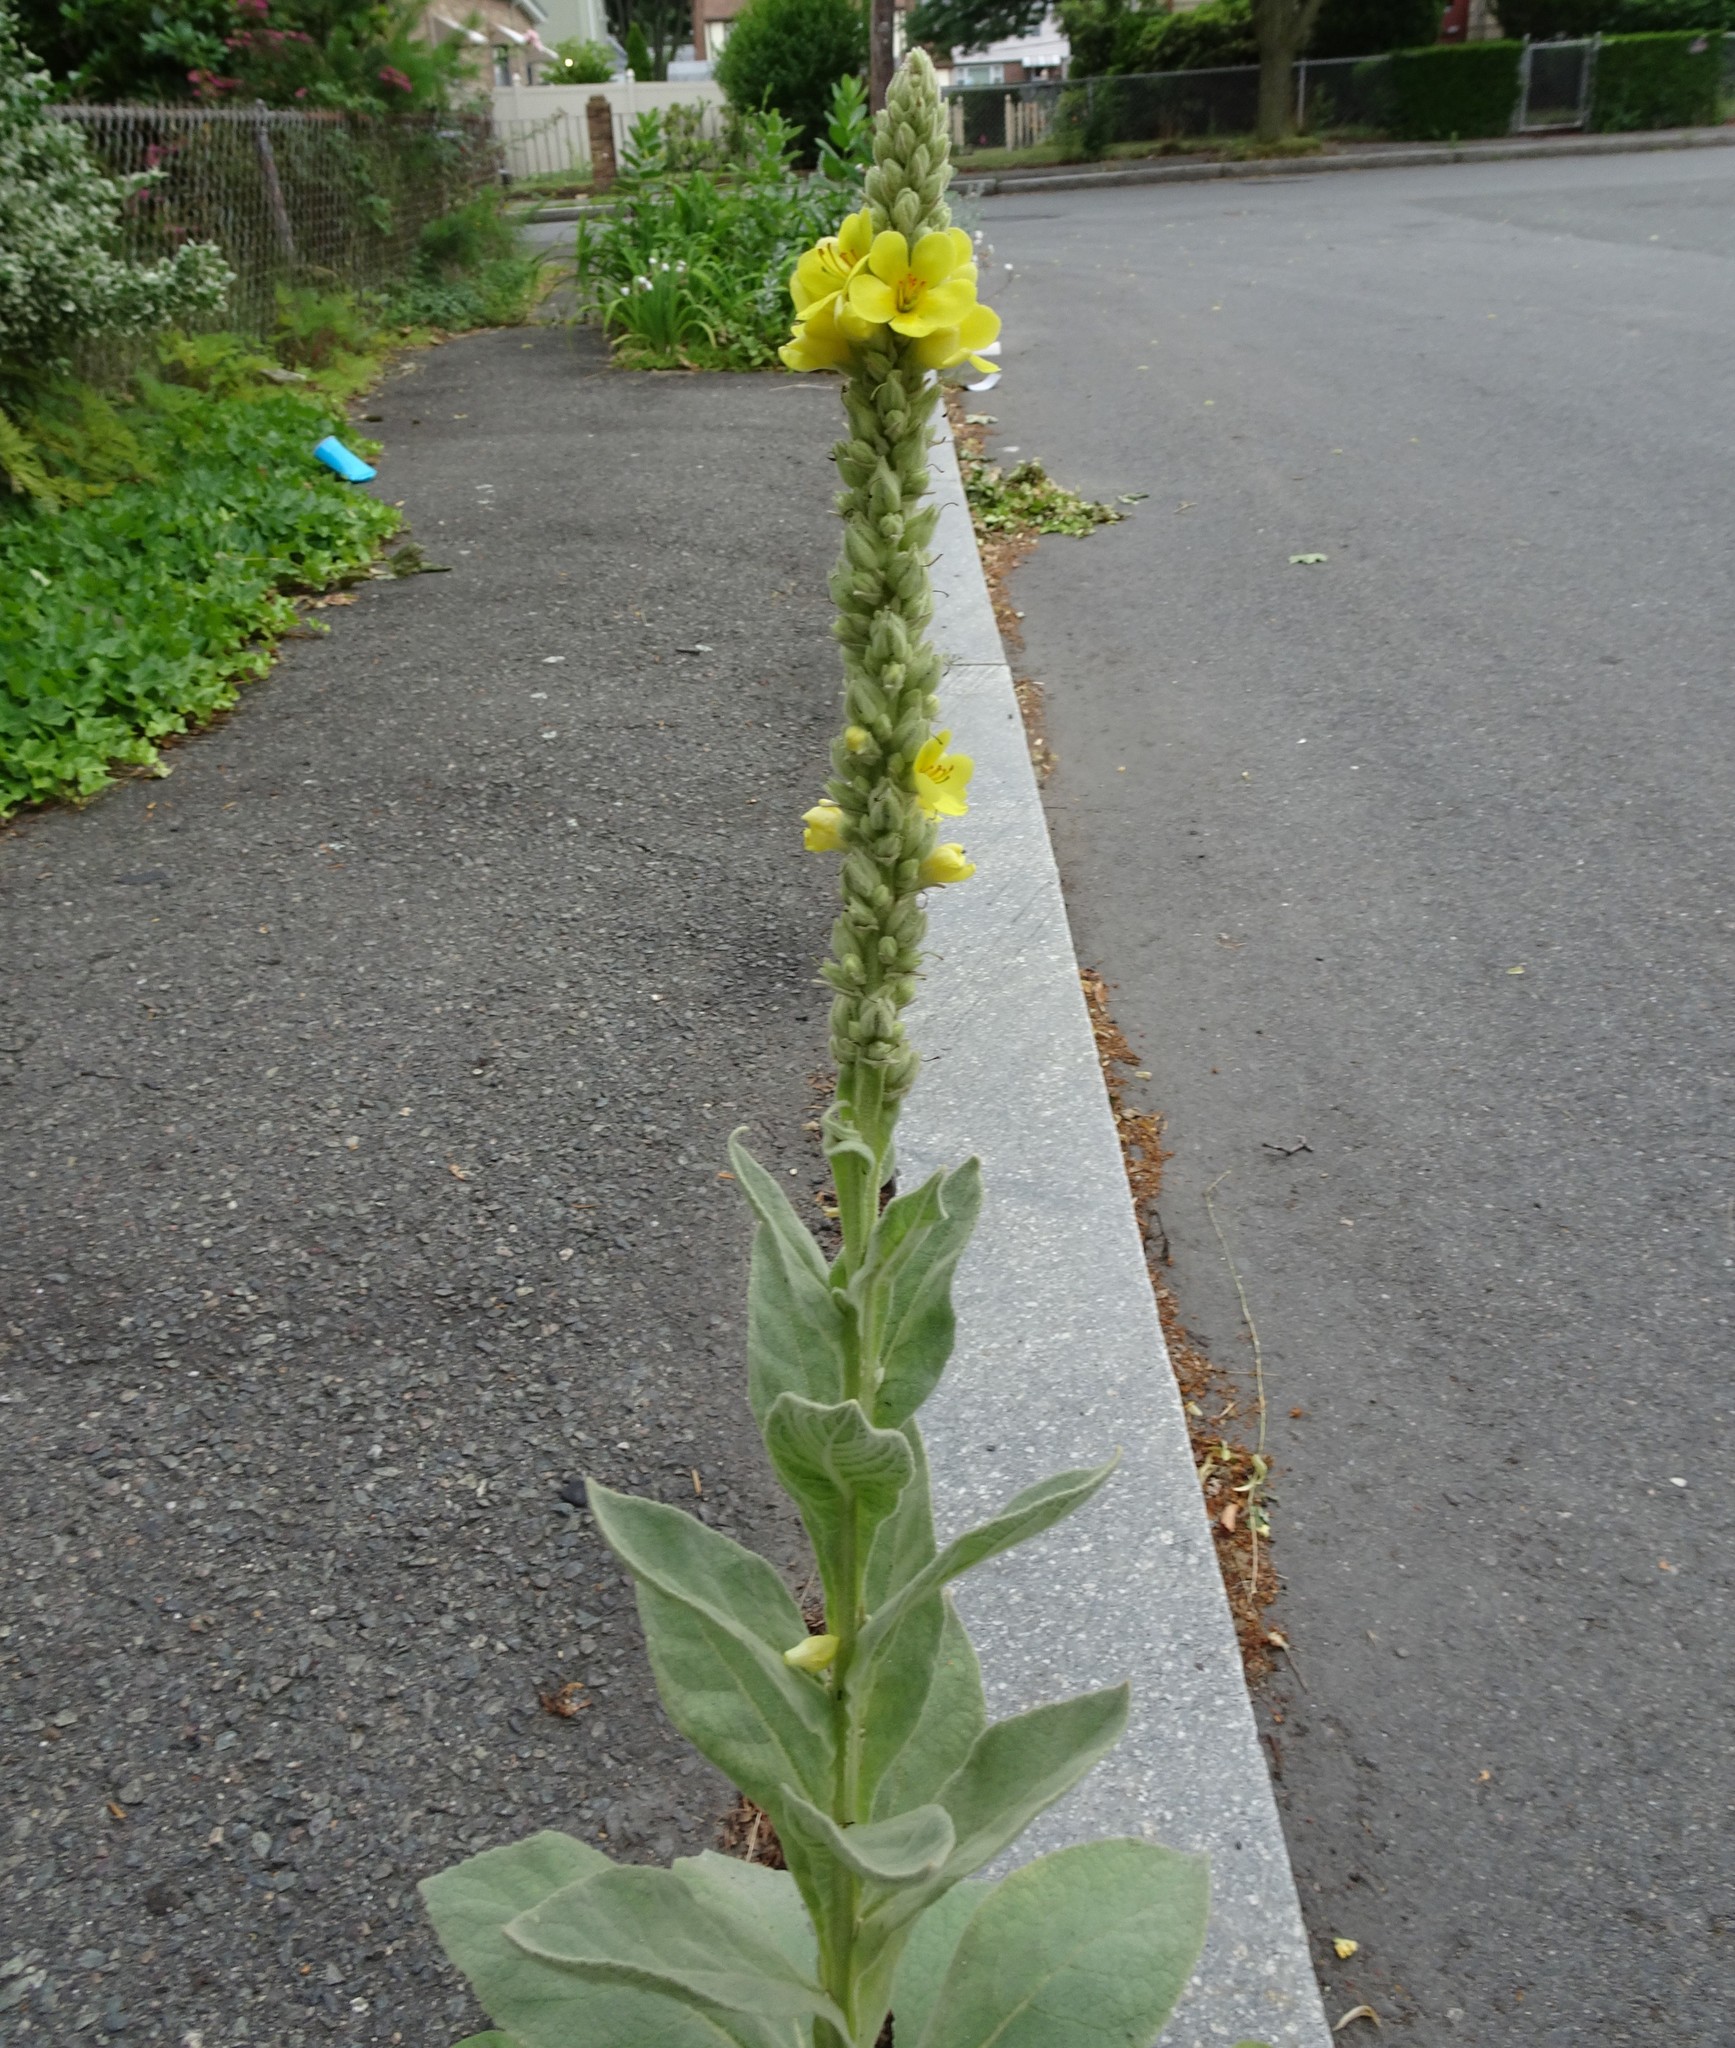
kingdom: Plantae
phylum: Tracheophyta
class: Magnoliopsida
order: Lamiales
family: Scrophulariaceae
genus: Verbascum
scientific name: Verbascum thapsus
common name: Common mullein
